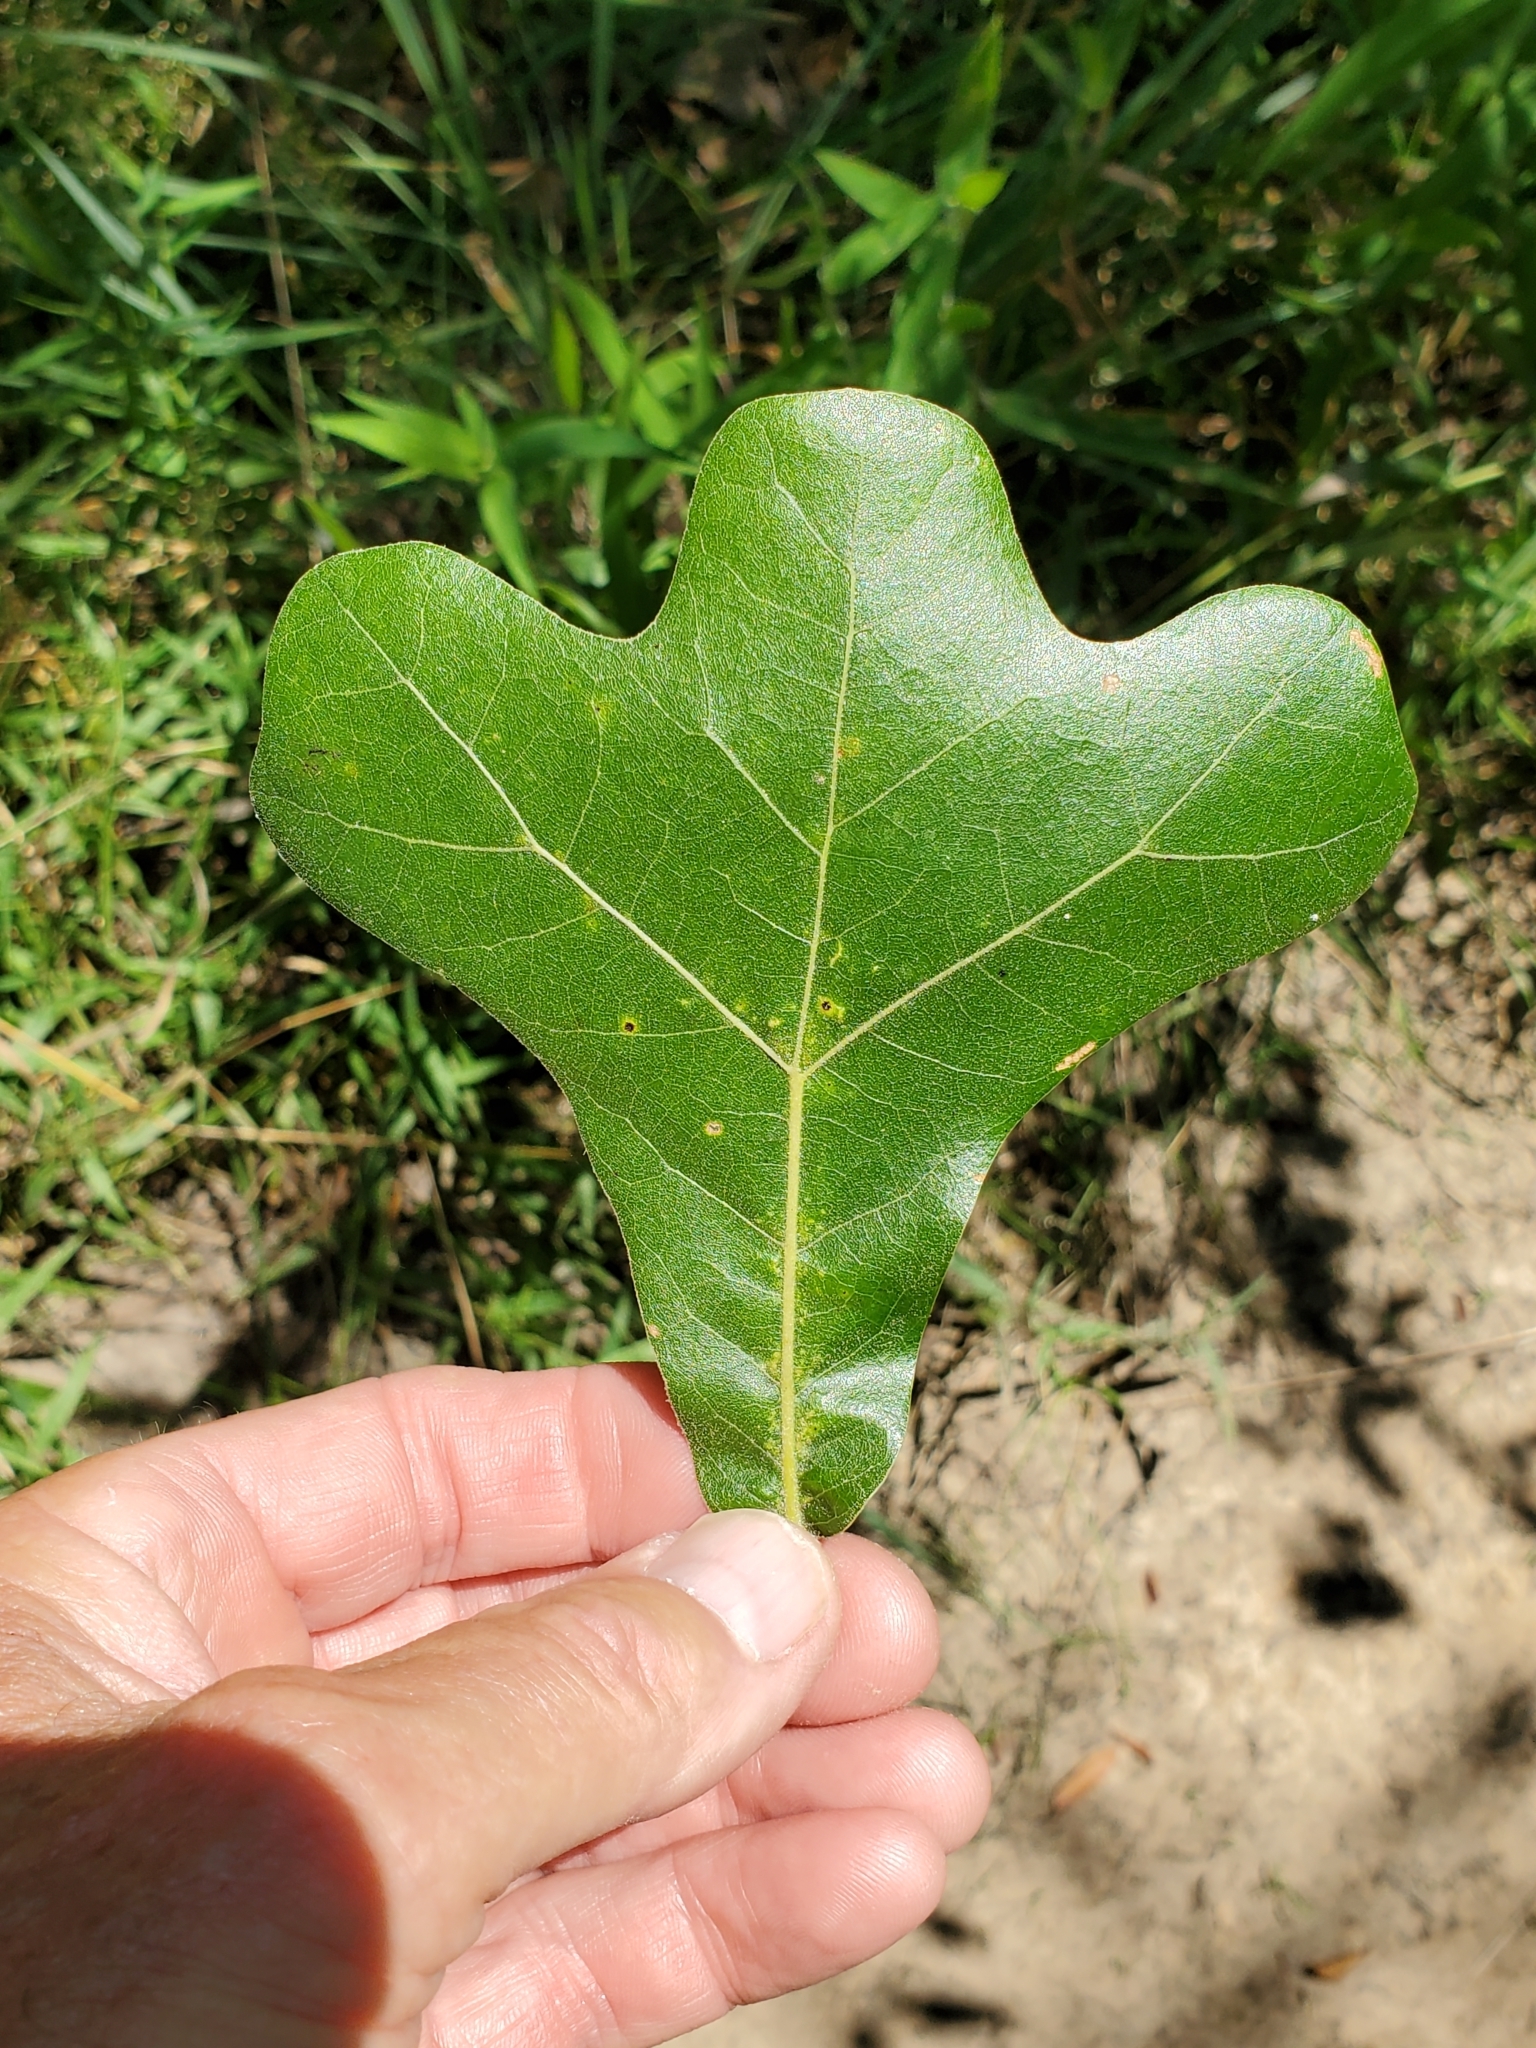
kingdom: Plantae
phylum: Tracheophyta
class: Magnoliopsida
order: Fagales
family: Fagaceae
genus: Quercus
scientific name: Quercus marilandica
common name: Blackjack oak
